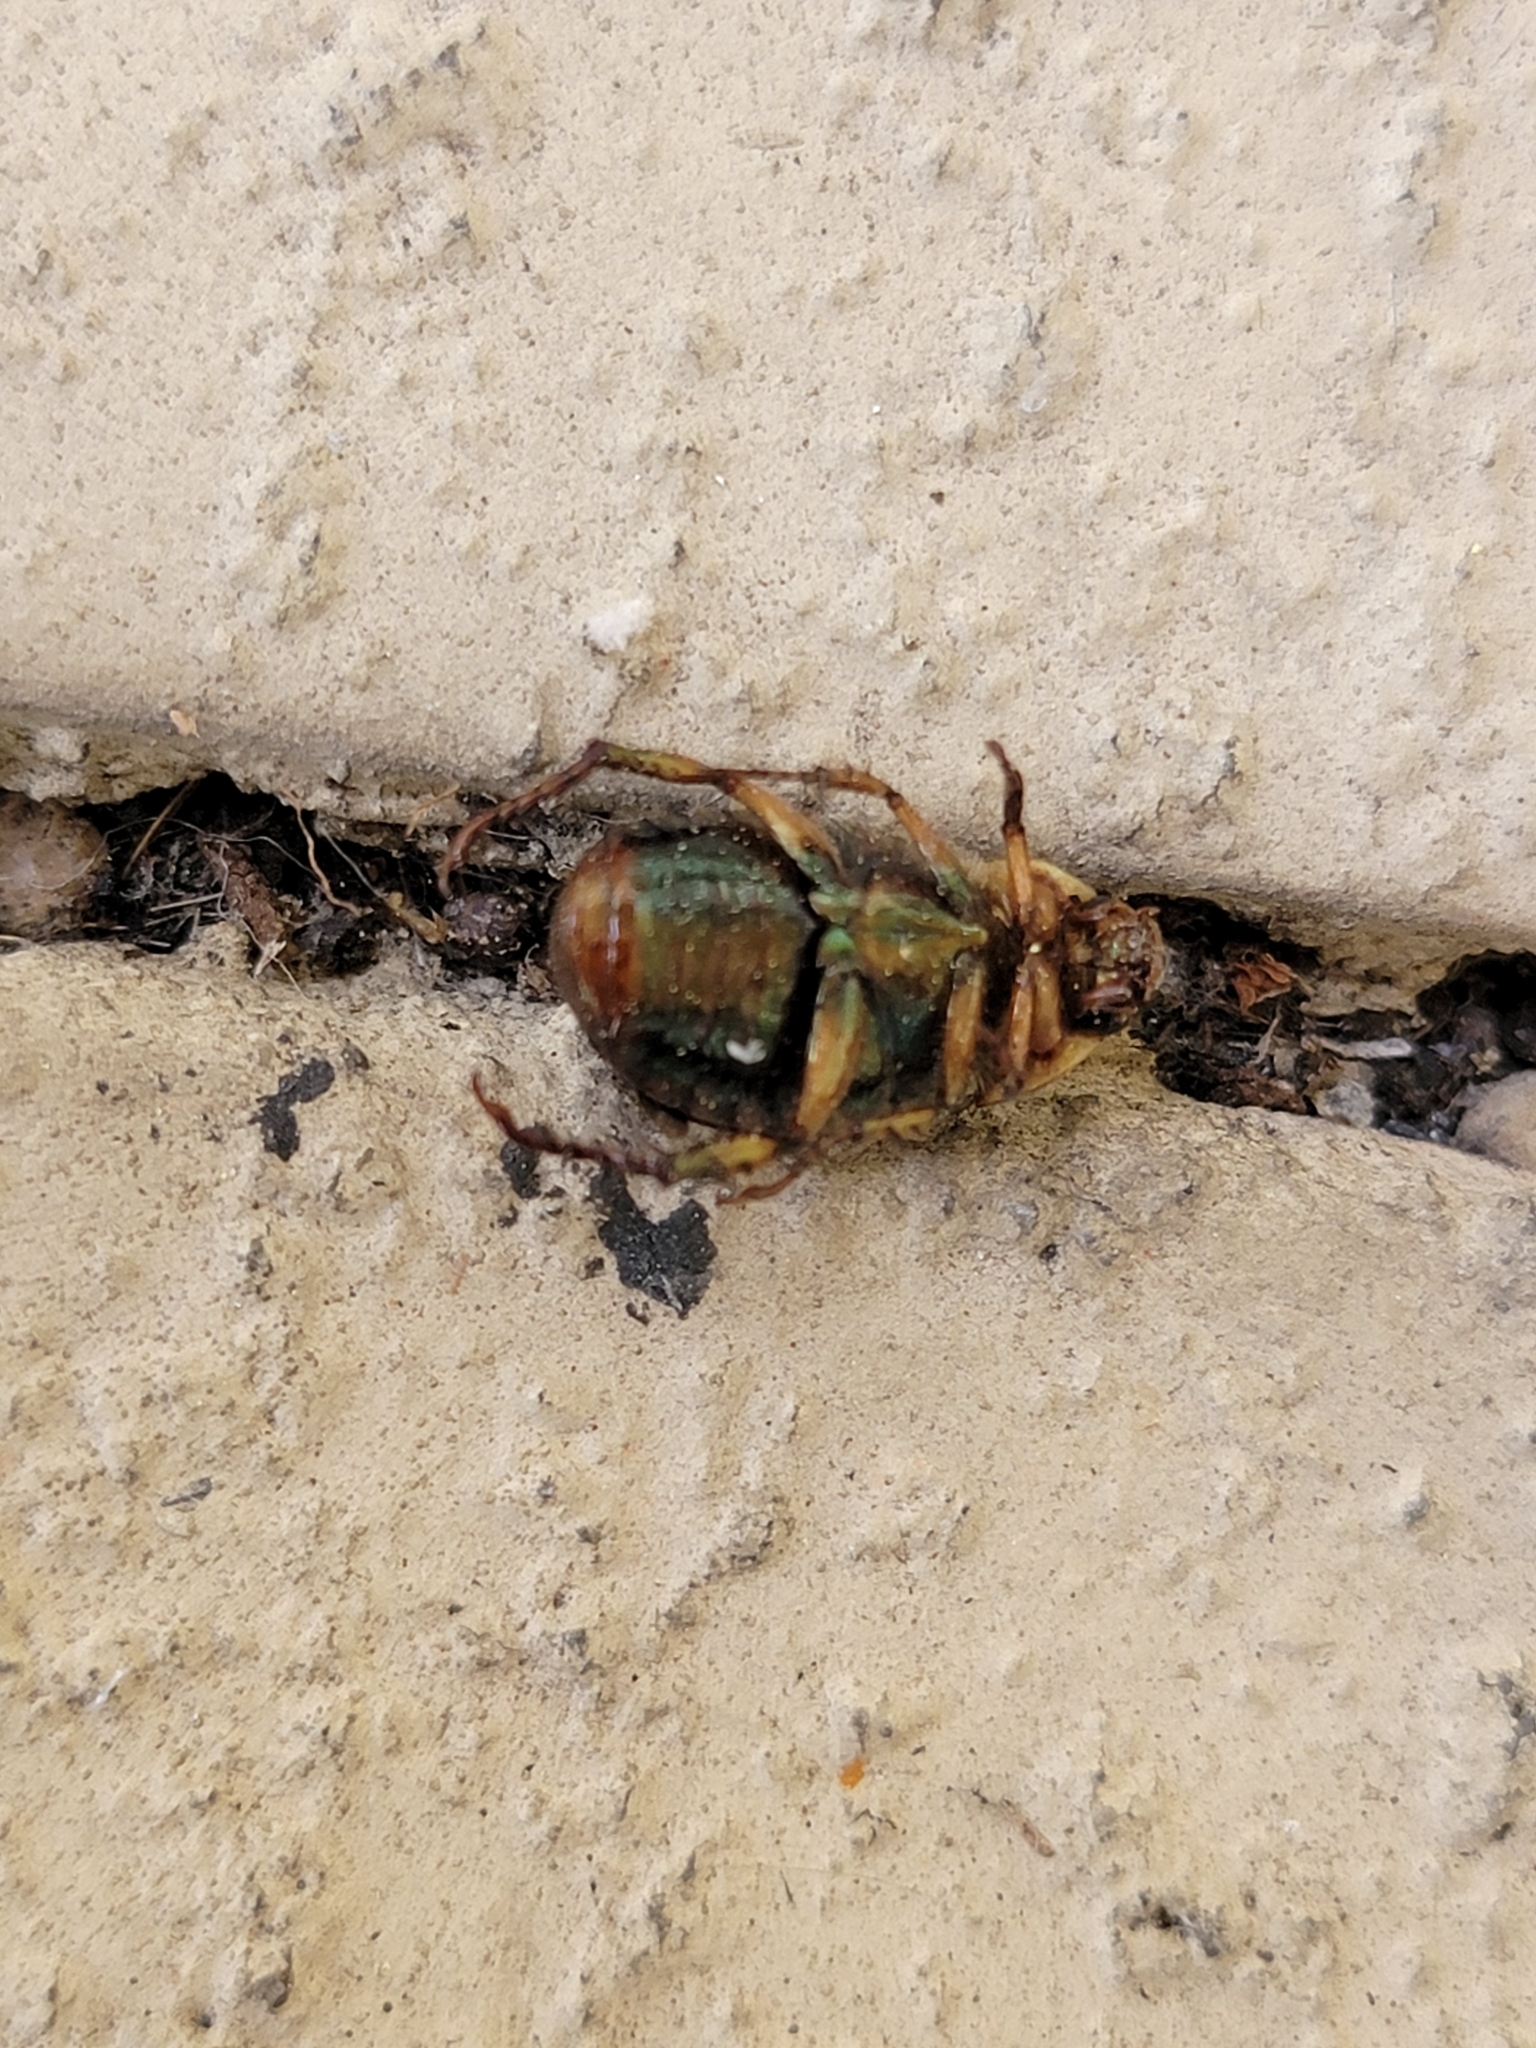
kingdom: Animalia
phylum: Arthropoda
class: Insecta
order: Coleoptera
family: Scarabaeidae
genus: Callistethus
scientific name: Callistethus marginatus
